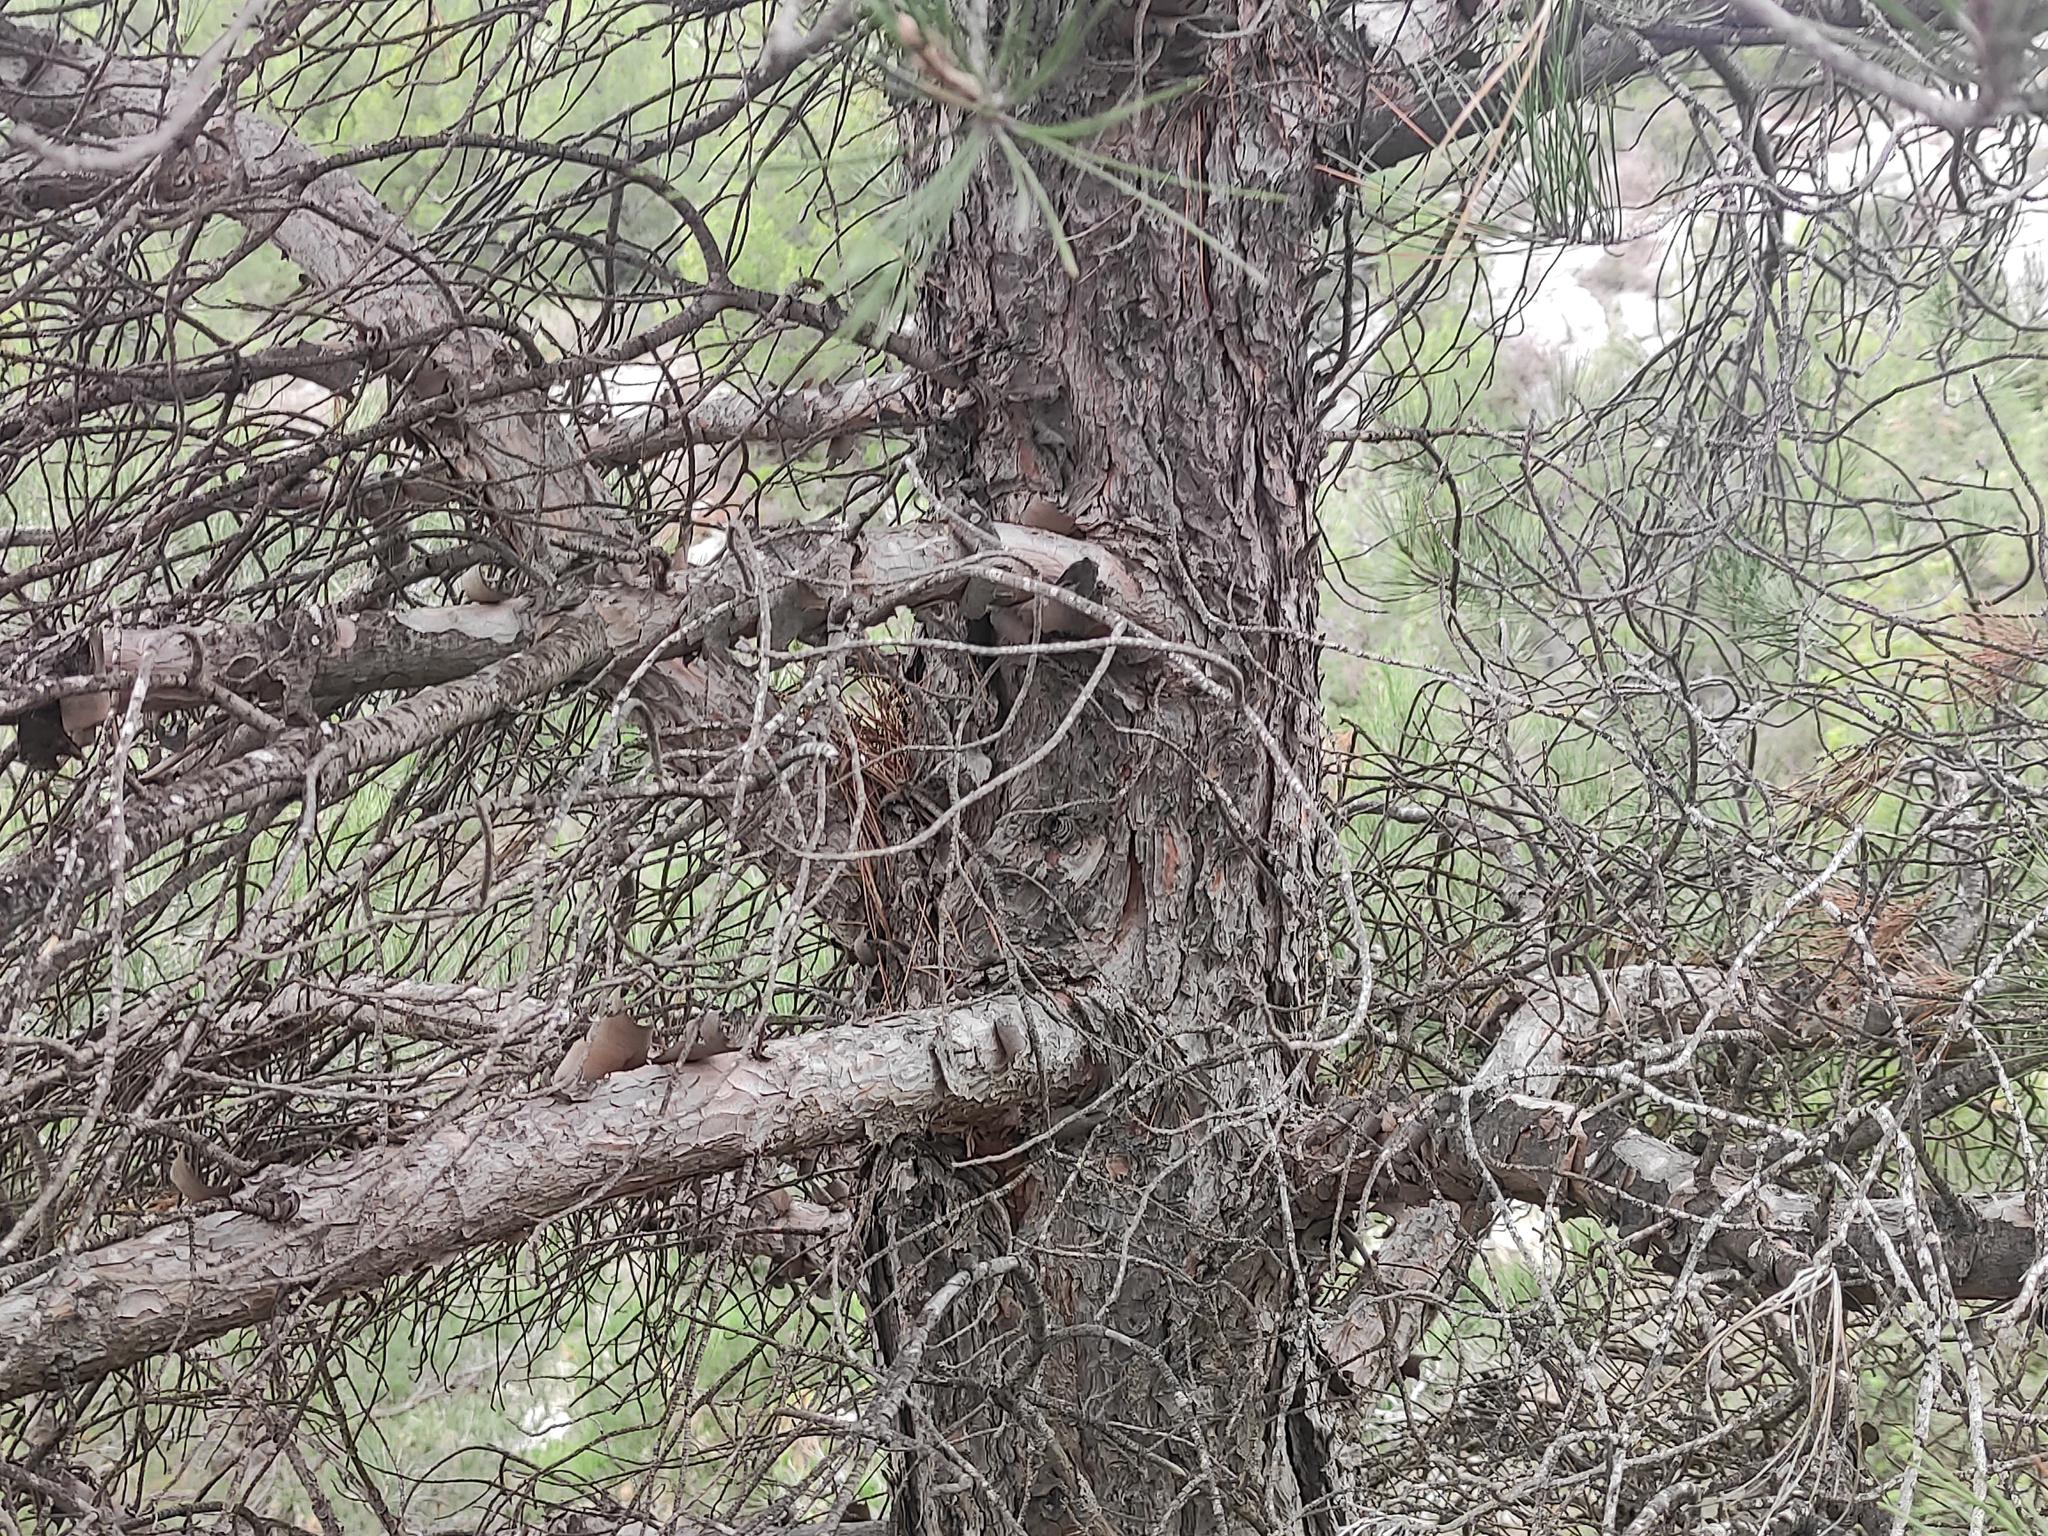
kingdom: Plantae
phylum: Tracheophyta
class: Pinopsida
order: Pinales
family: Pinaceae
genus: Pinus
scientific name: Pinus brutia
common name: Turkish pine
